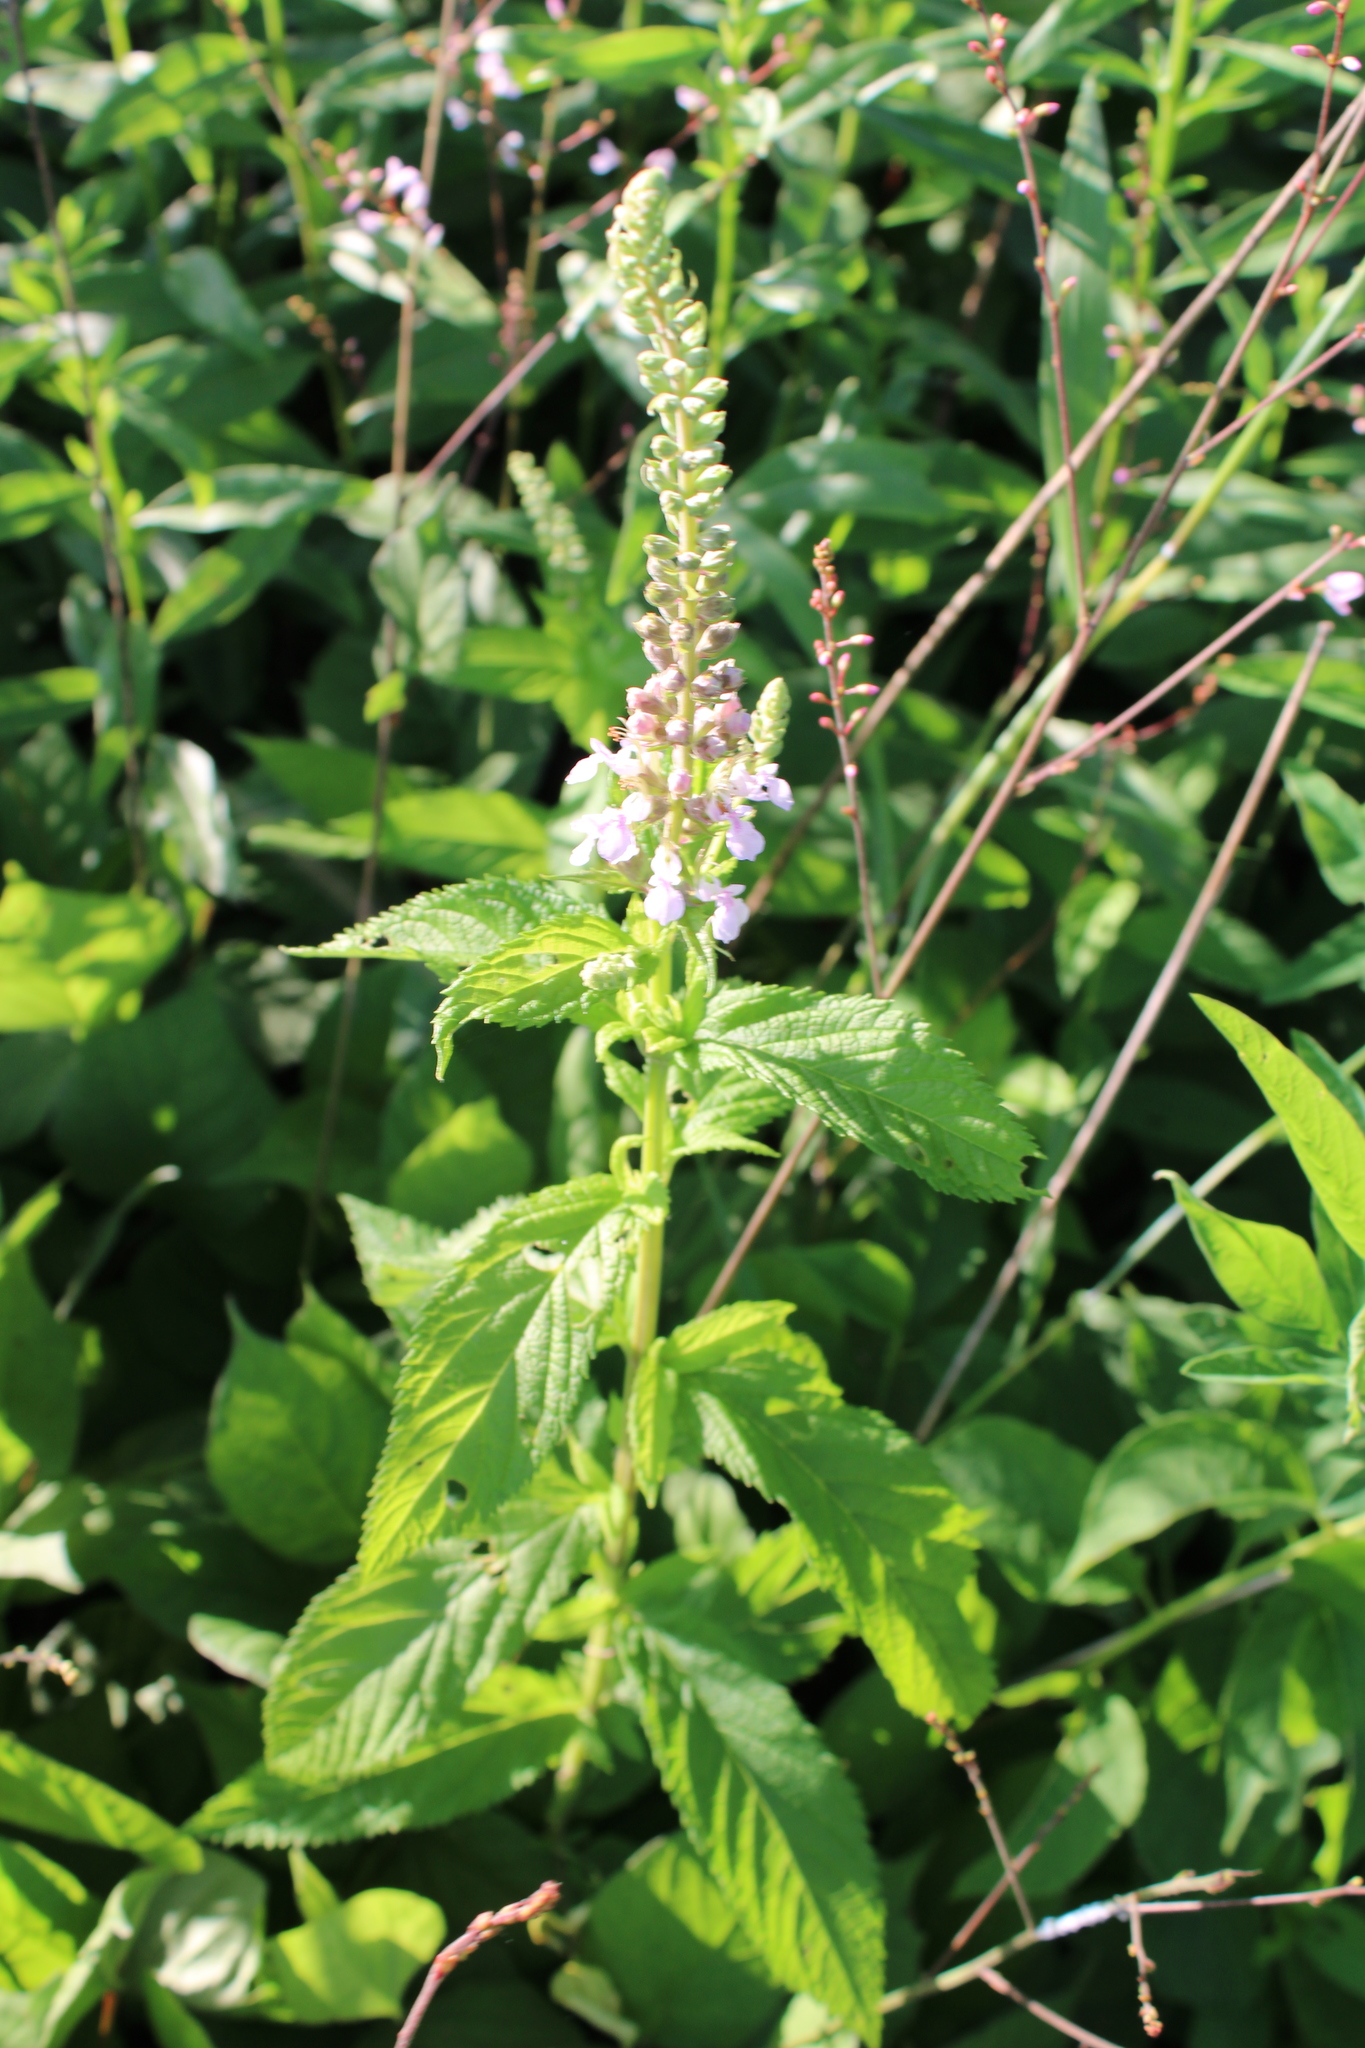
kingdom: Plantae
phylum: Tracheophyta
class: Magnoliopsida
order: Lamiales
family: Lamiaceae
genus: Teucrium
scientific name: Teucrium canadense
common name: American germander
